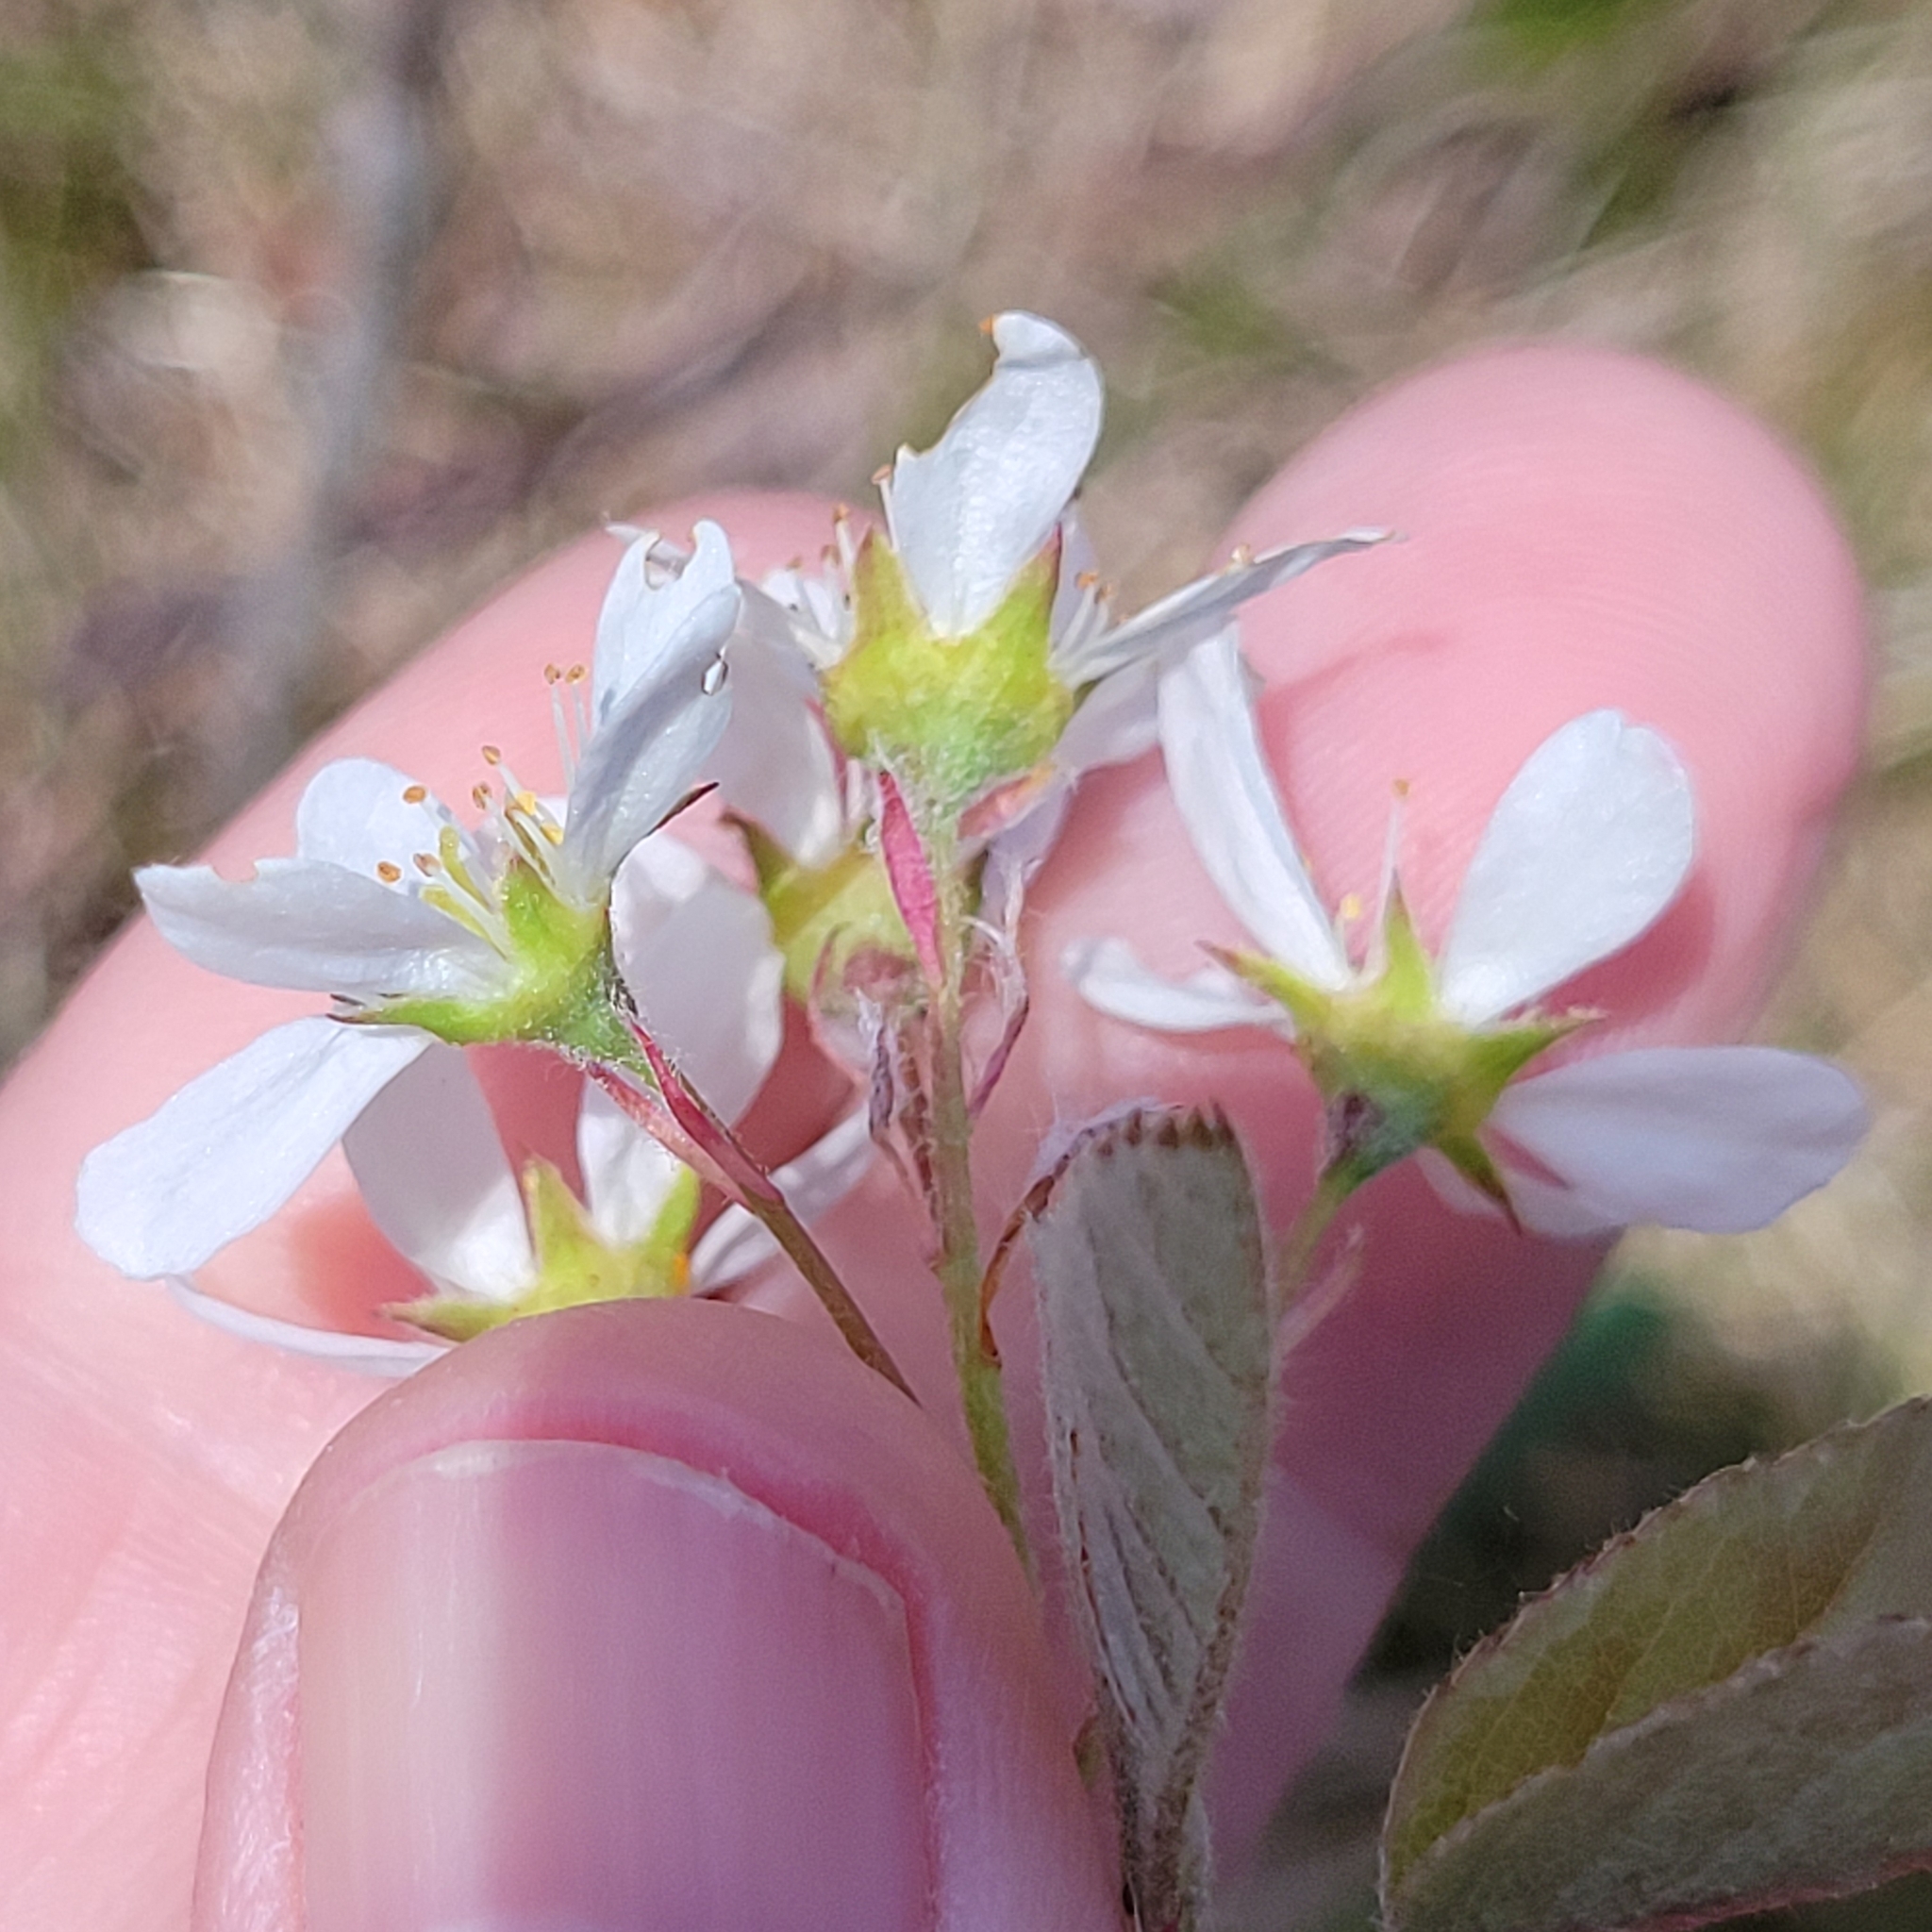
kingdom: Plantae
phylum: Tracheophyta
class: Magnoliopsida
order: Rosales
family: Rosaceae
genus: Amelanchier
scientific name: Amelanchier arborea
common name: Downy serviceberry
